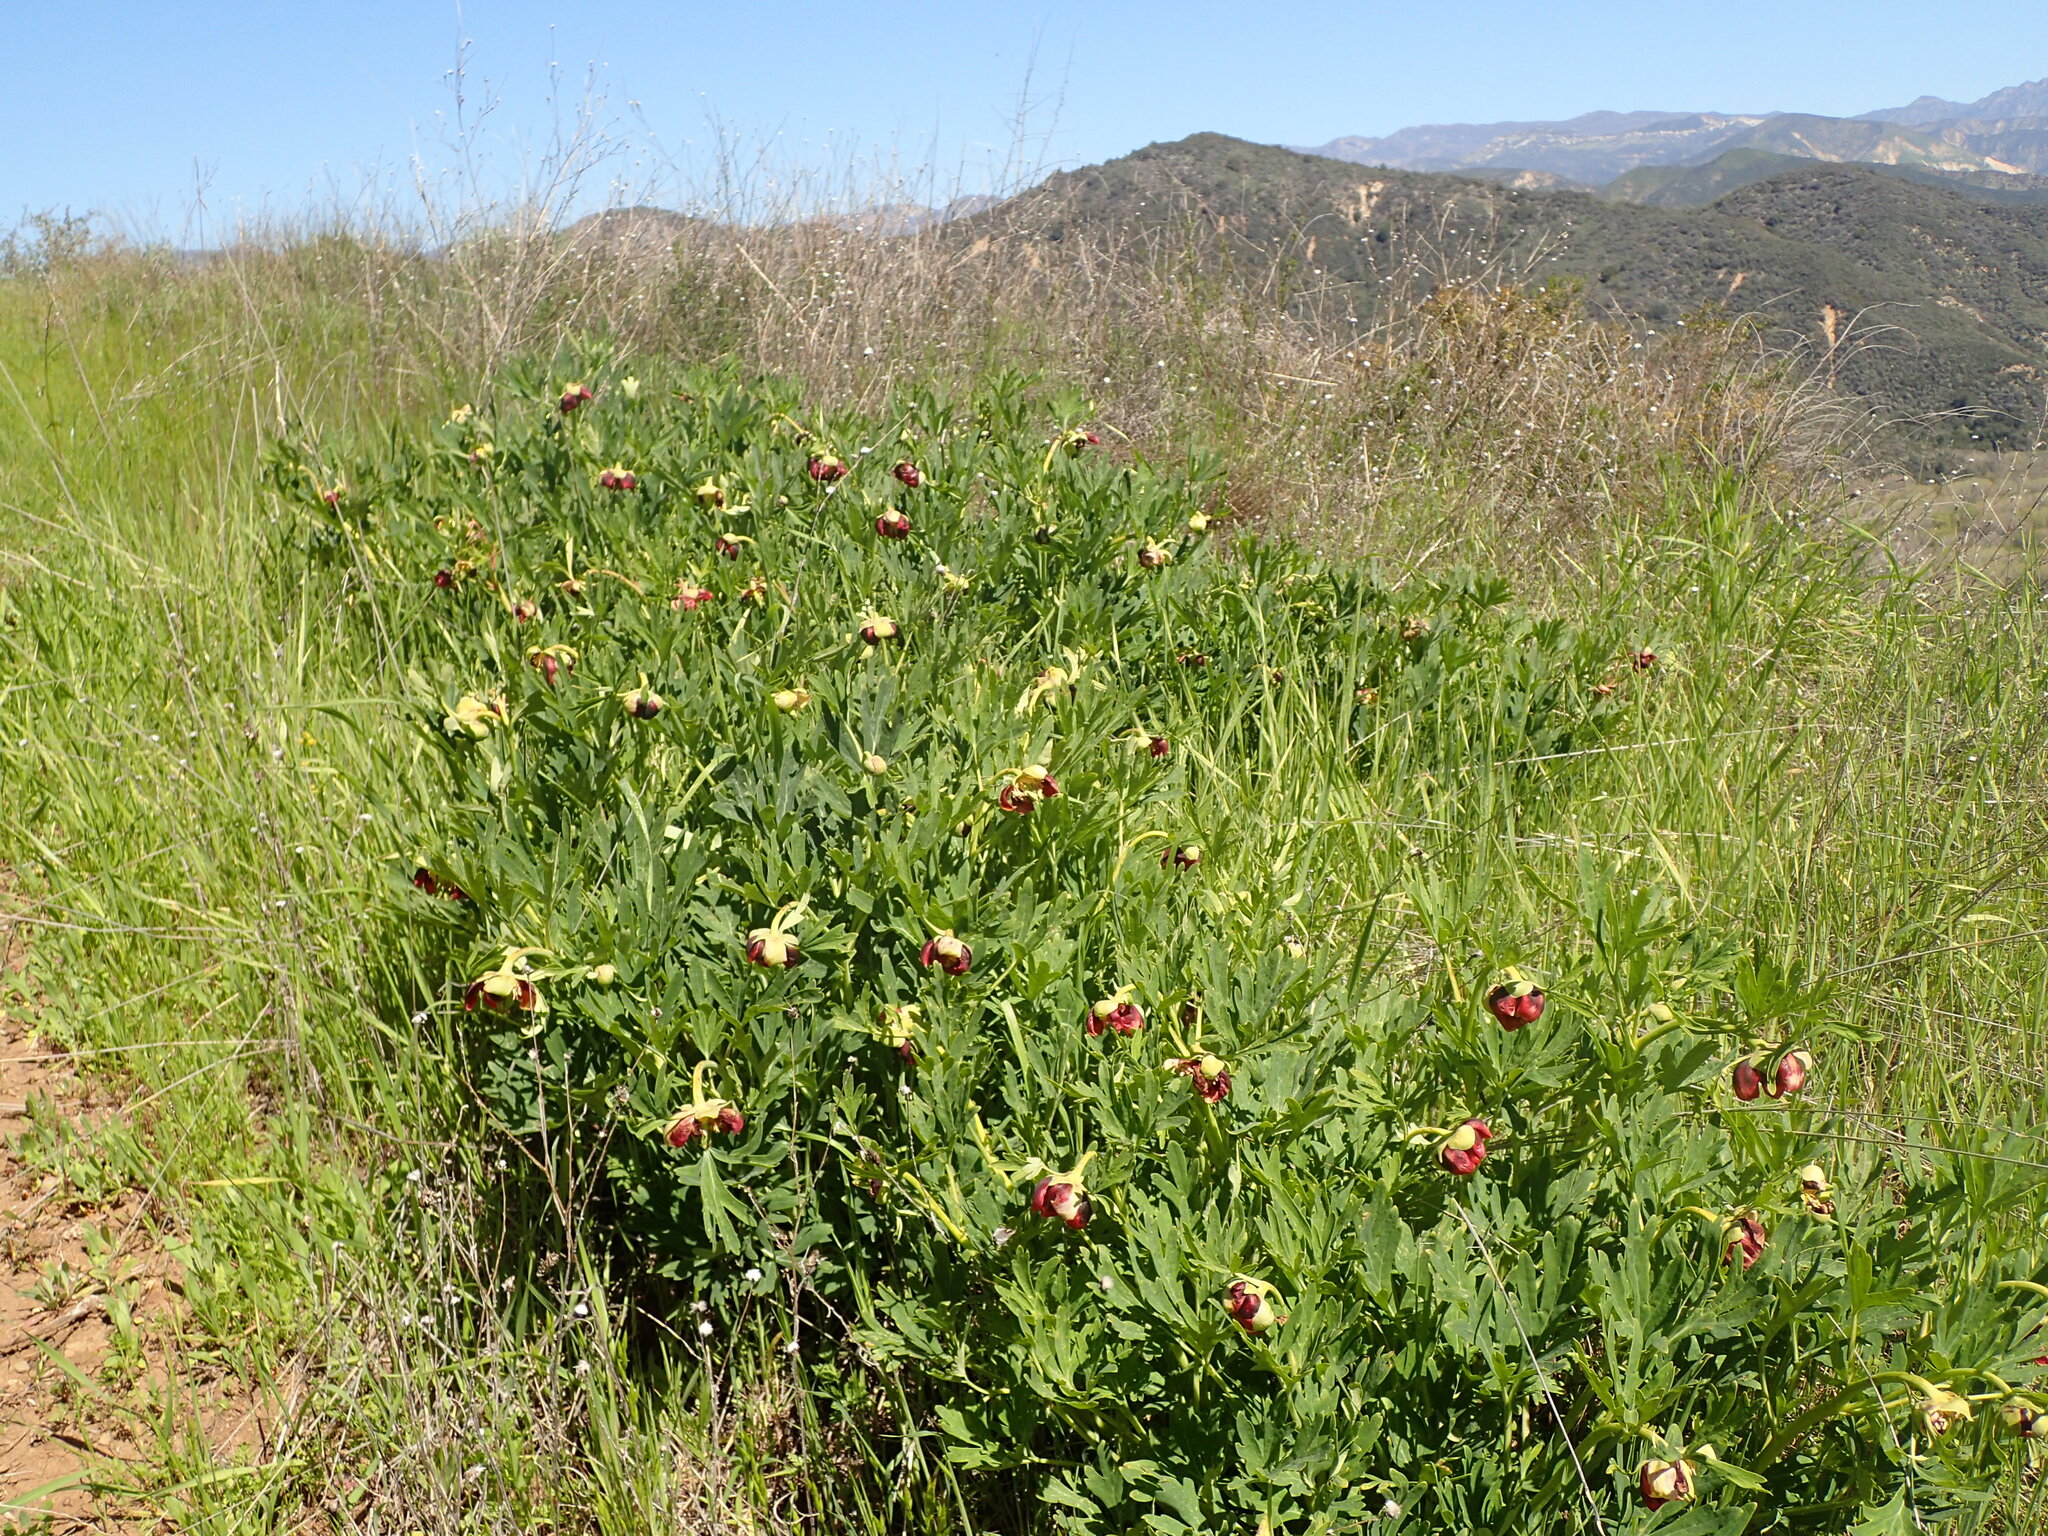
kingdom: Plantae
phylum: Tracheophyta
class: Magnoliopsida
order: Saxifragales
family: Paeoniaceae
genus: Paeonia
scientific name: Paeonia californica
